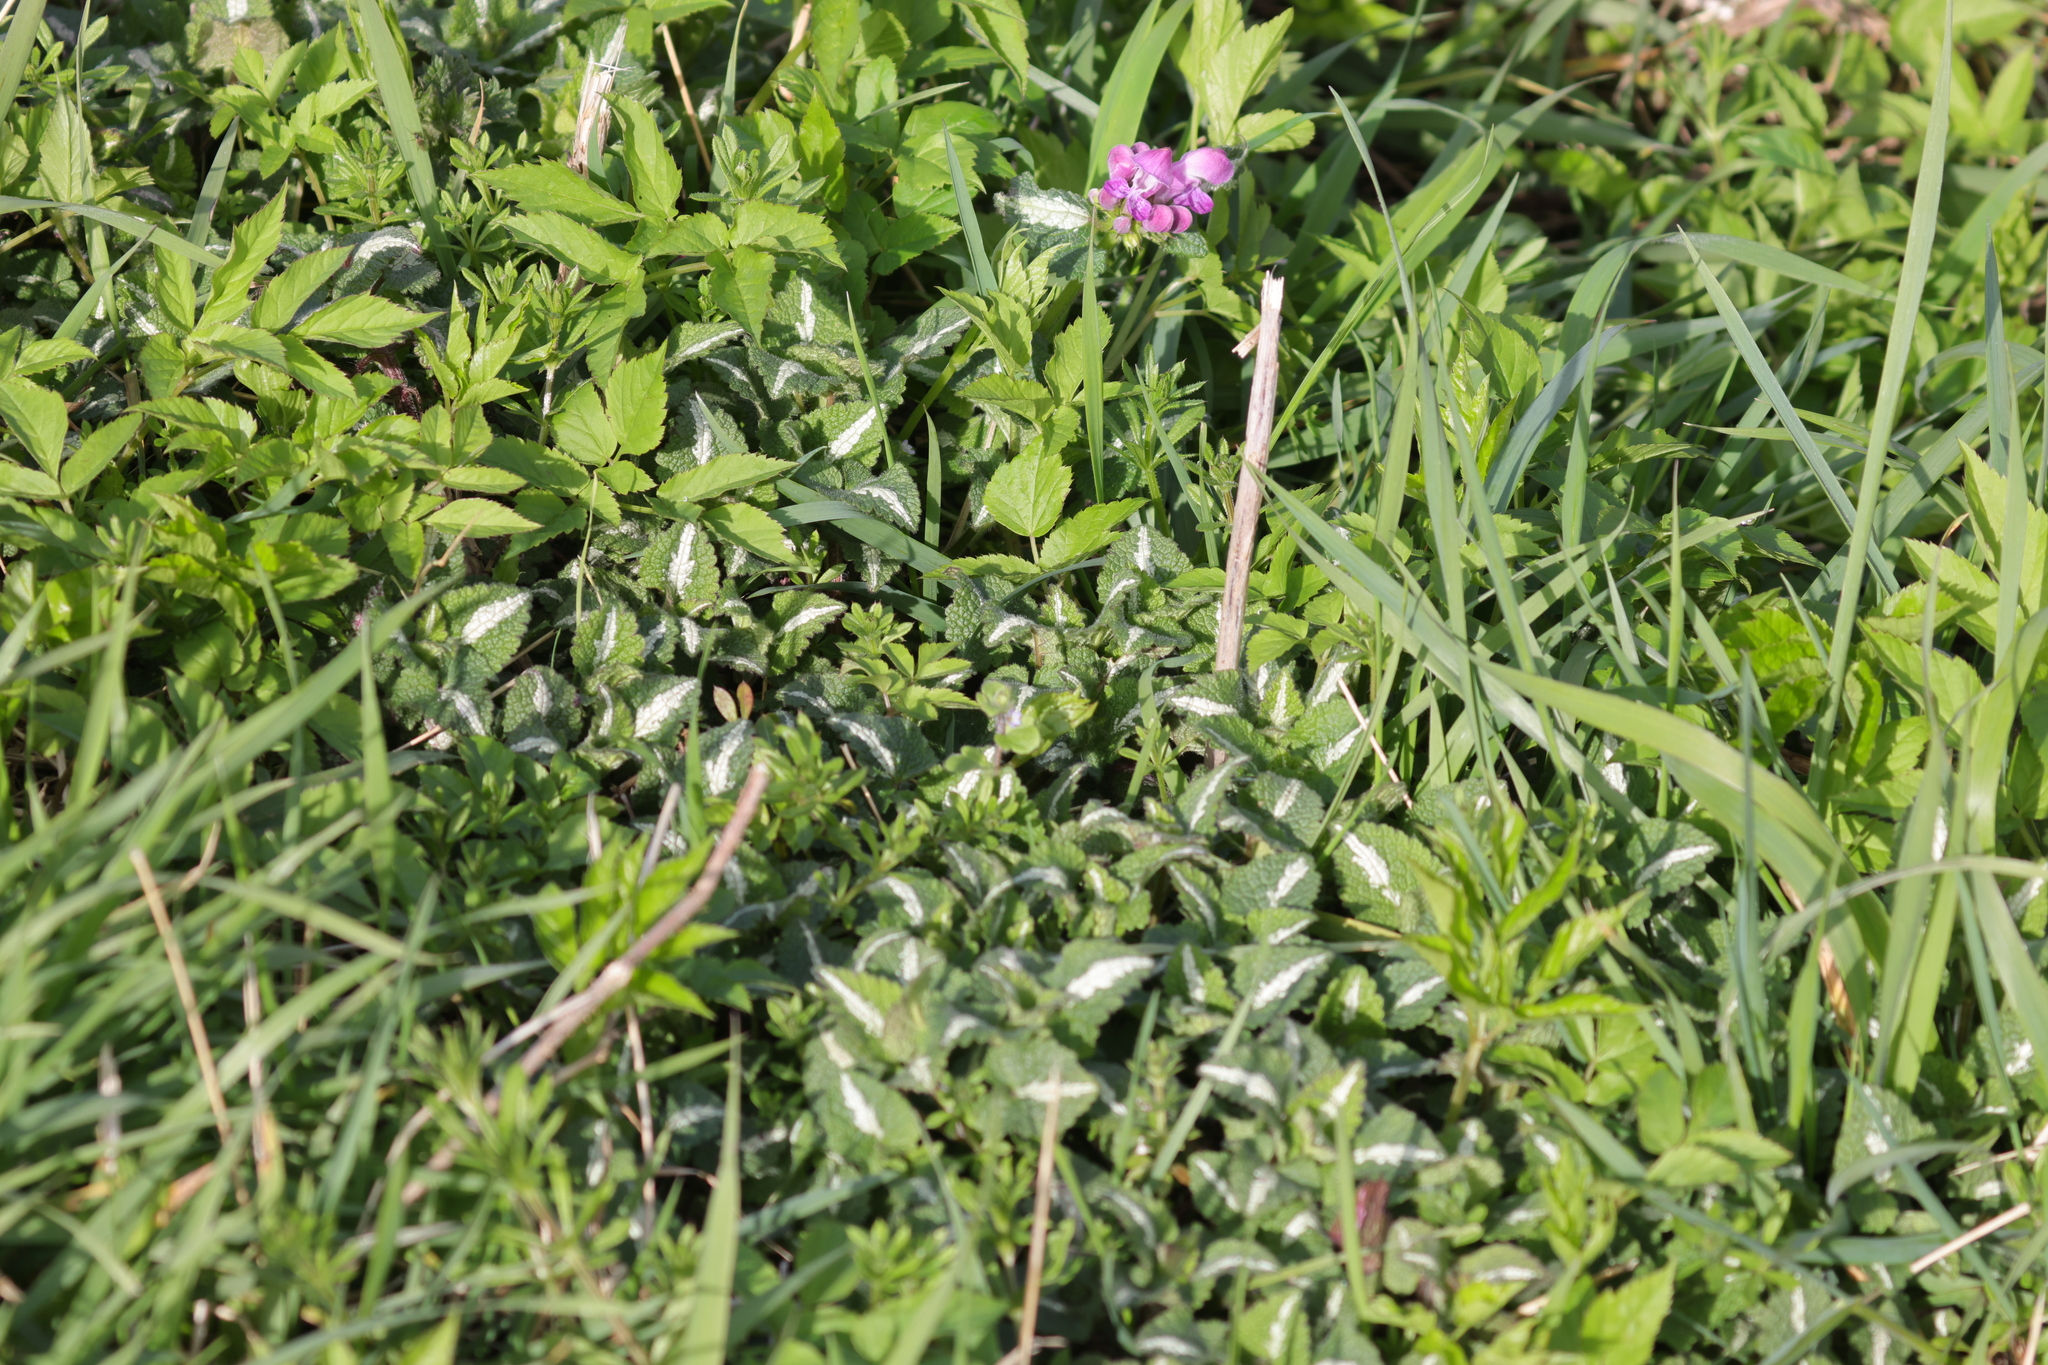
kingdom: Plantae
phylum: Tracheophyta
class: Magnoliopsida
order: Lamiales
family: Lamiaceae
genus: Lamium
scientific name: Lamium maculatum
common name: Spotted dead-nettle
